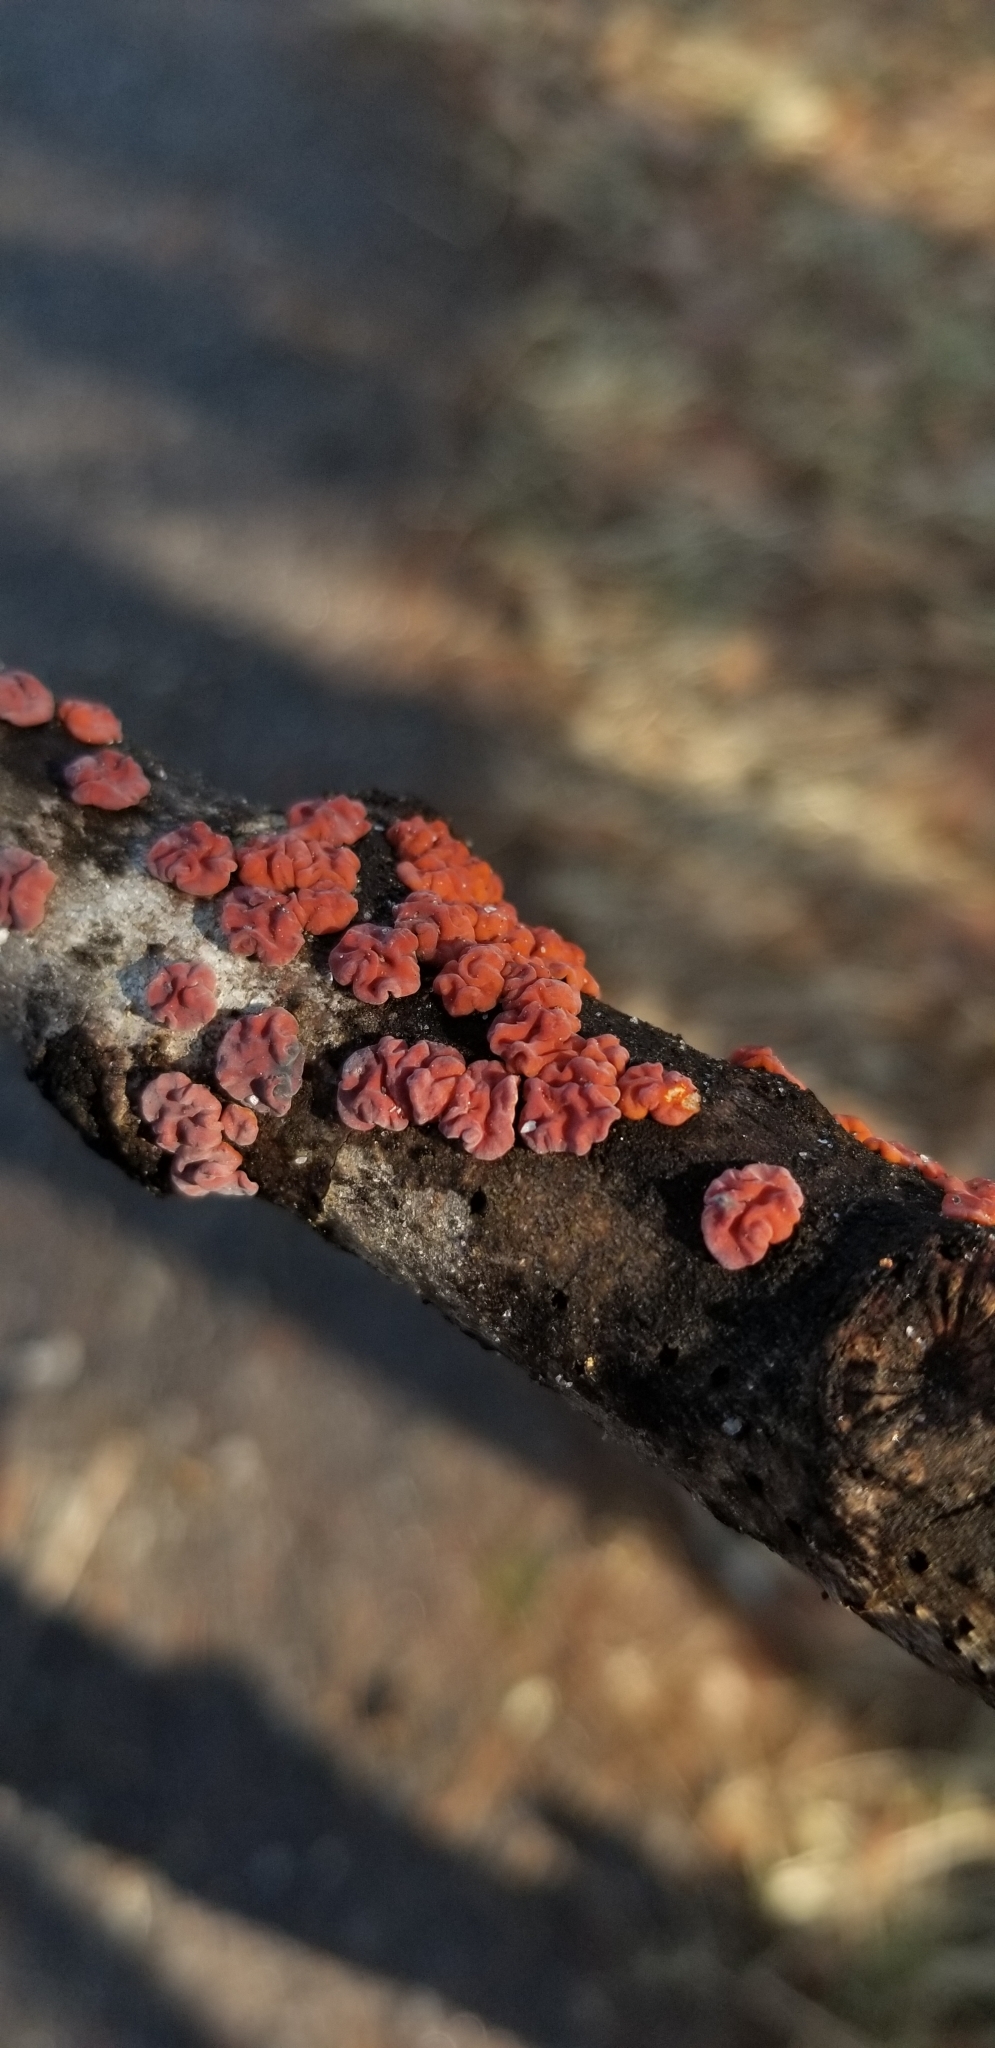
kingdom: Fungi
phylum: Basidiomycota
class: Agaricomycetes
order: Russulales
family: Peniophoraceae
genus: Peniophora
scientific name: Peniophora rufa
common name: Red tree brain fungus
